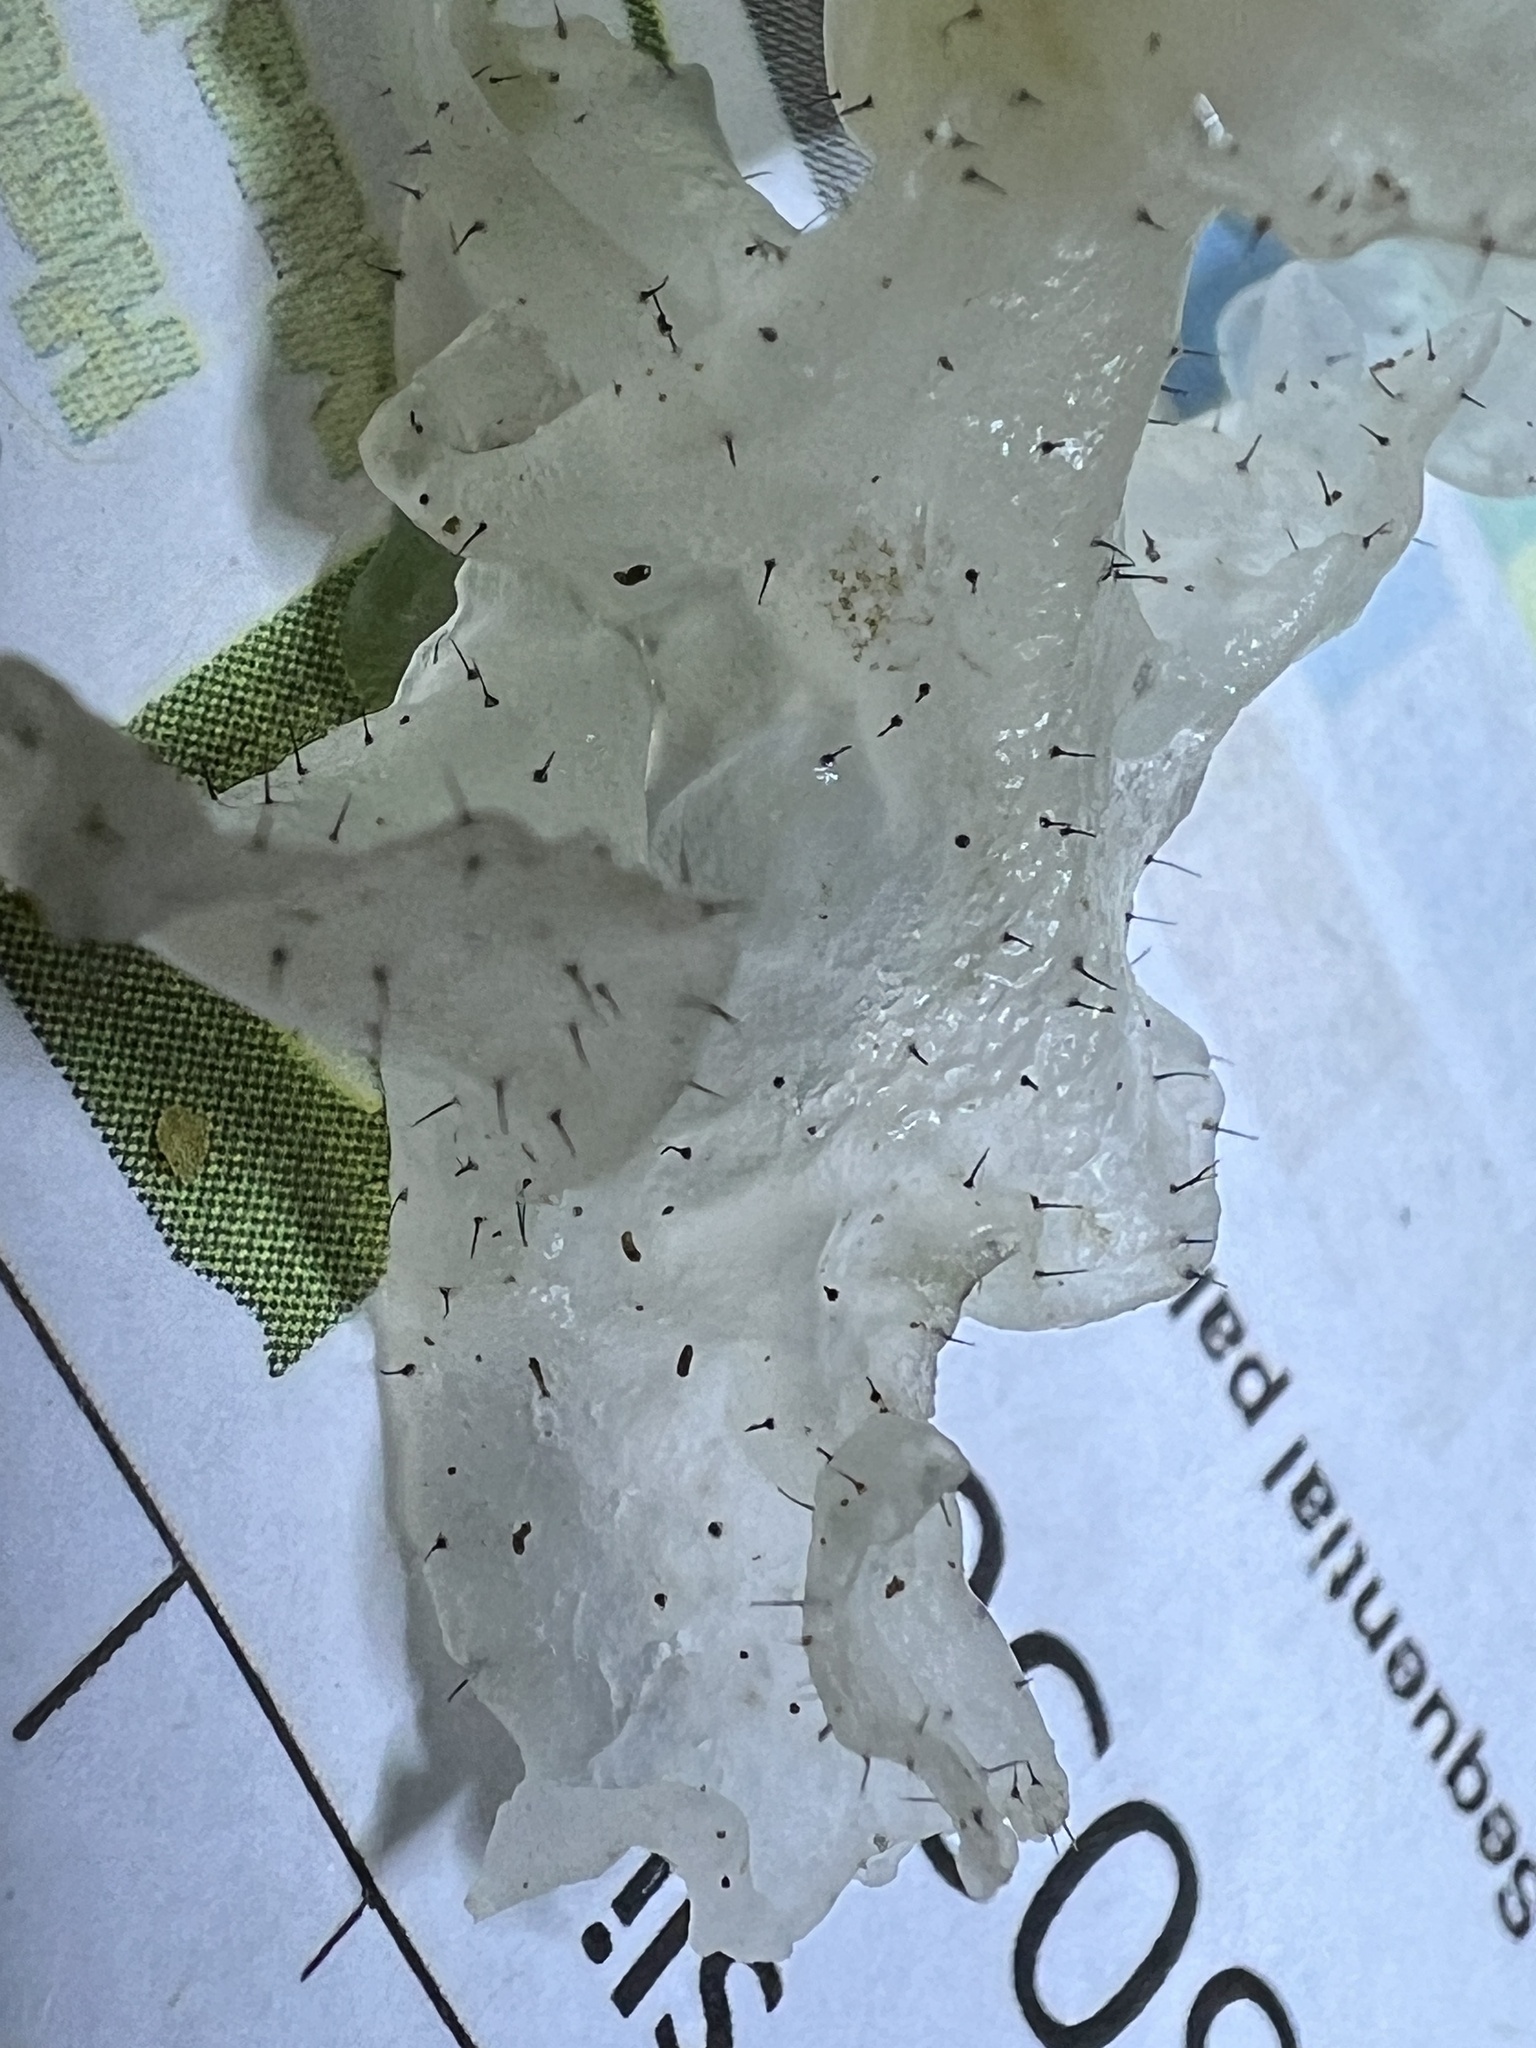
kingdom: Fungi
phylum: Ascomycota
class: Sordariomycetes
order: Ophiostomatales
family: Ophiostomataceae
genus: Sporothrix
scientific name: Sporothrix epigloea
